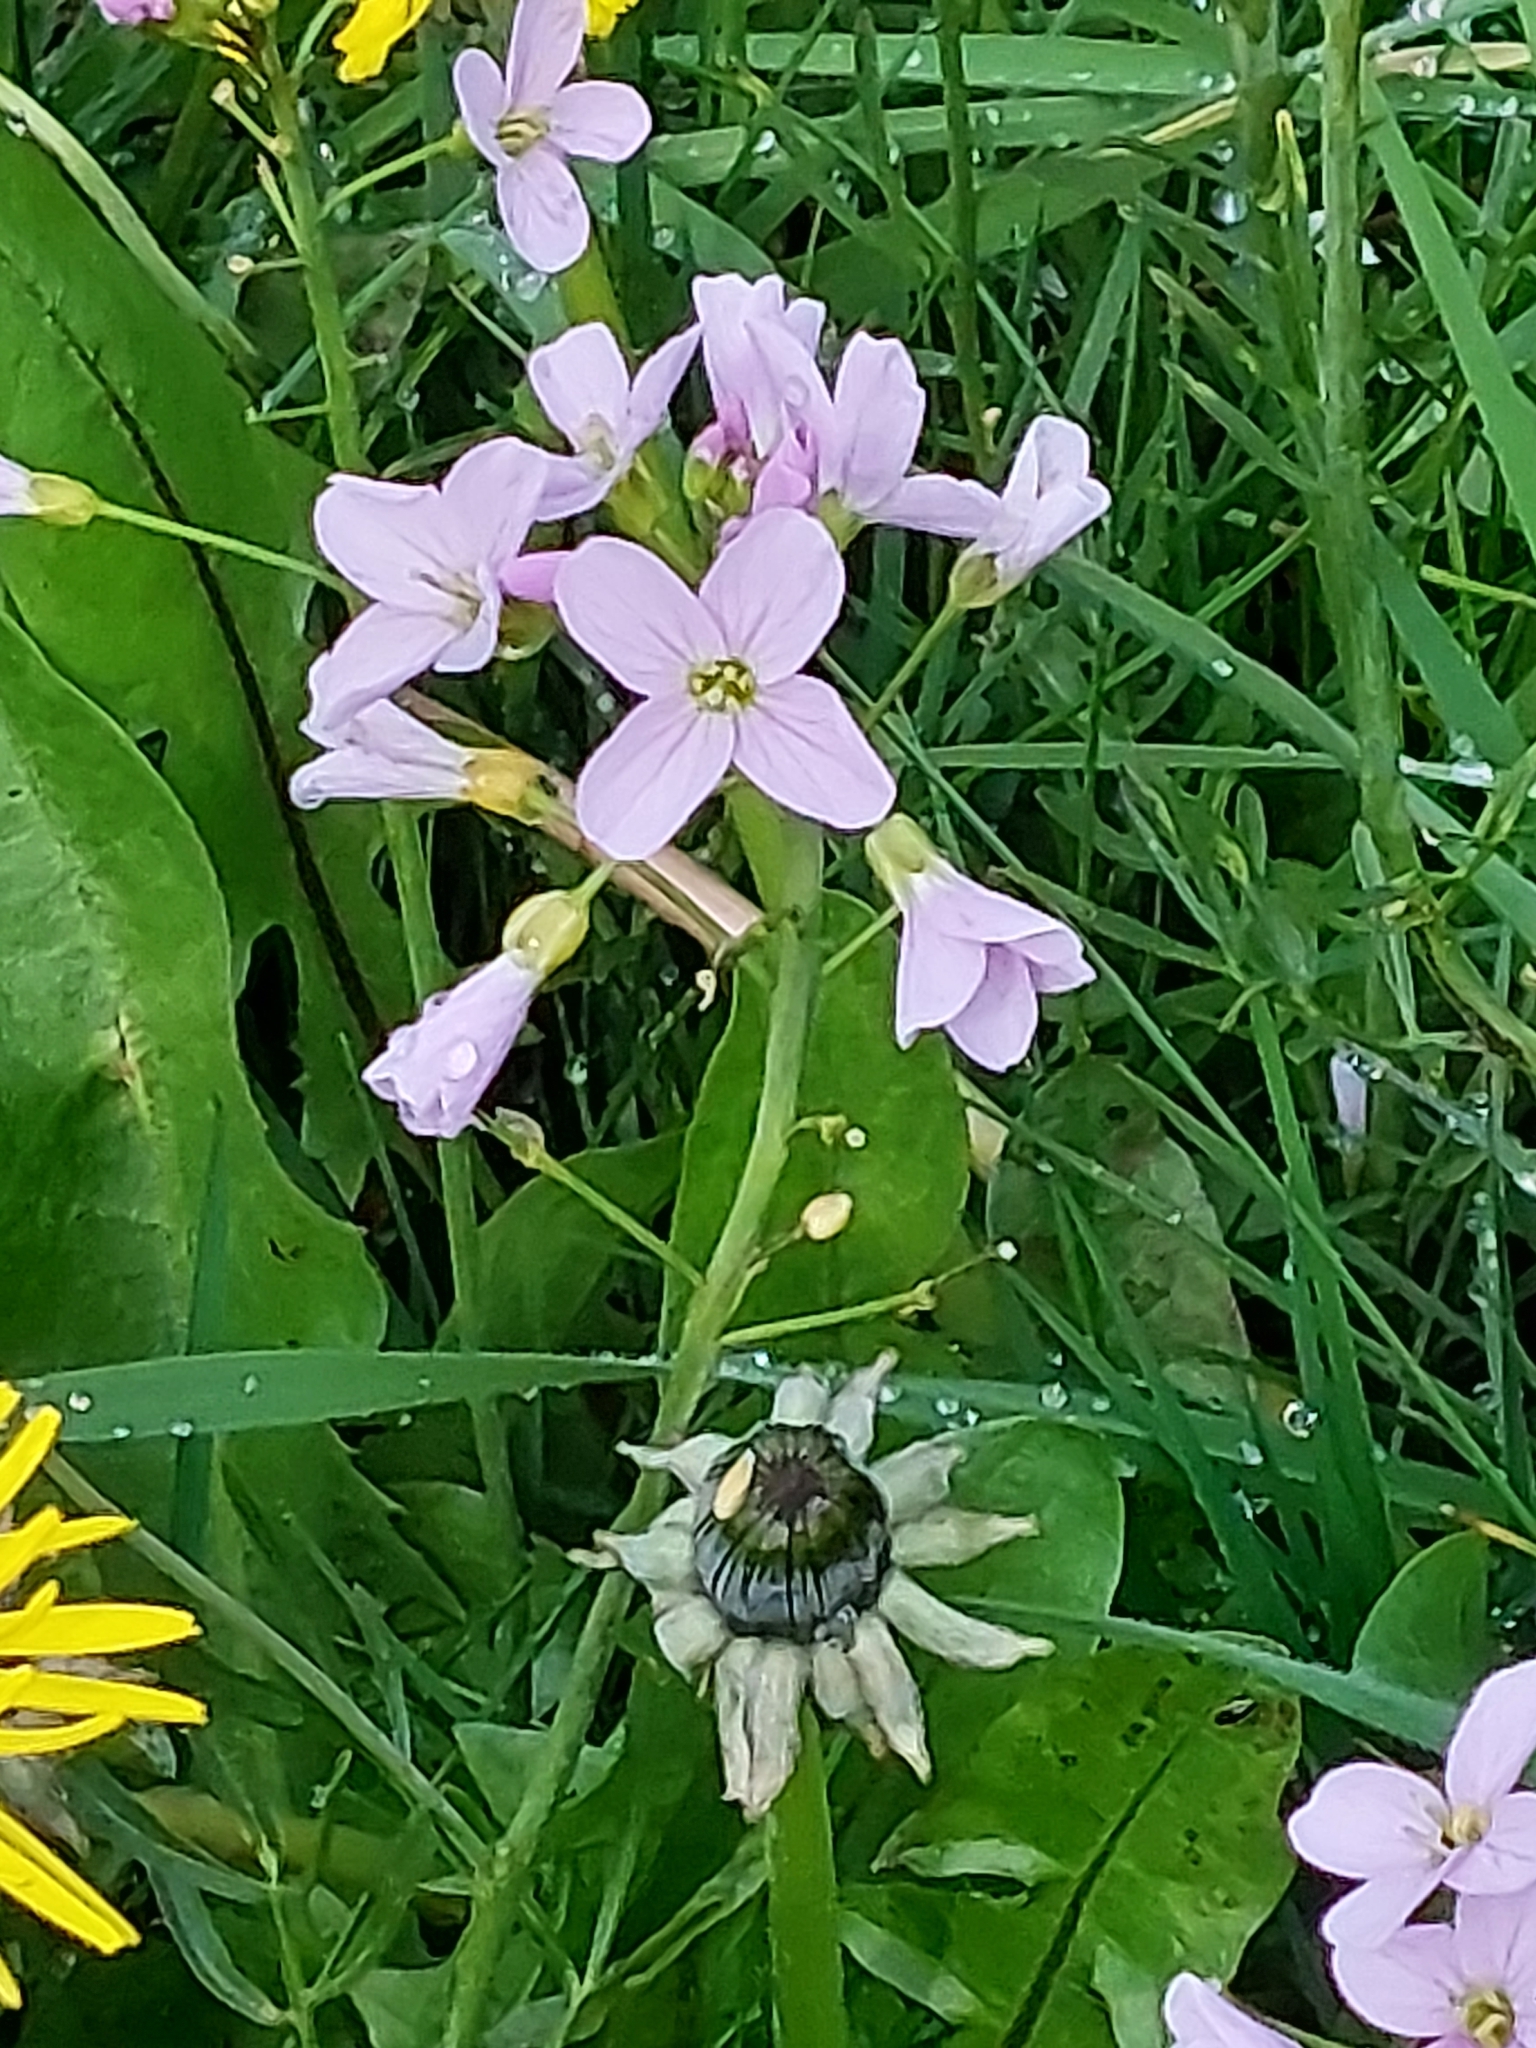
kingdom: Plantae
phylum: Tracheophyta
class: Magnoliopsida
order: Brassicales
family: Brassicaceae
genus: Cardamine
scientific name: Cardamine pratensis
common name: Cuckoo flower
